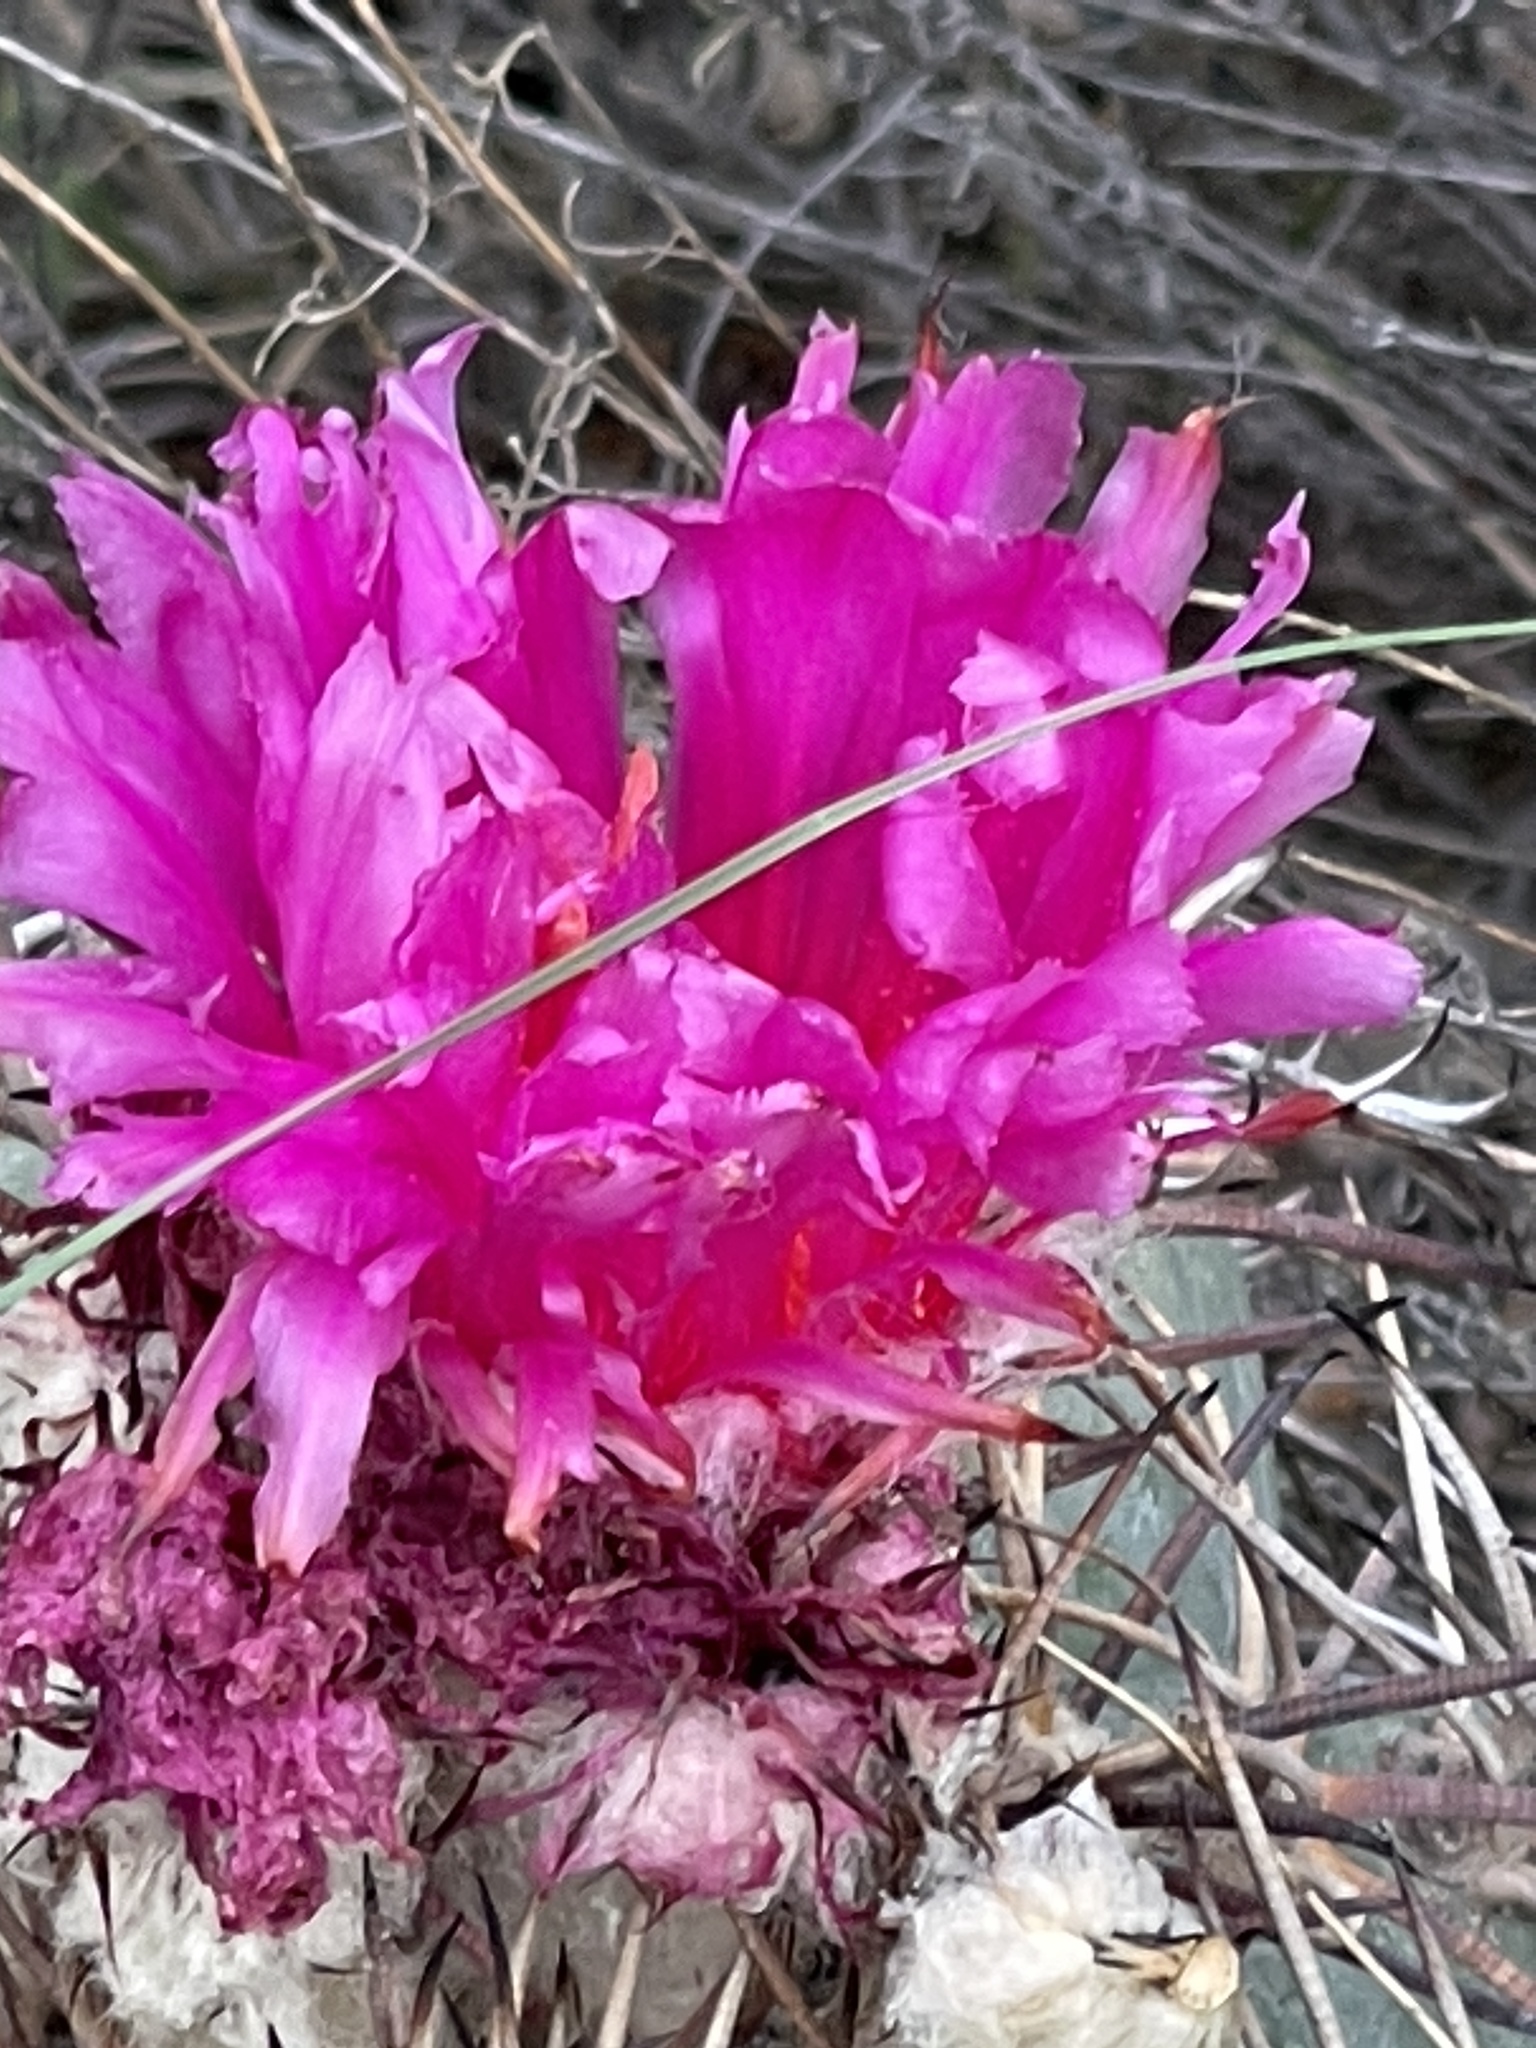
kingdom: Plantae
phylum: Tracheophyta
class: Magnoliopsida
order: Caryophyllales
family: Cactaceae
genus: Echinocactus
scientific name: Echinocactus horizonthalonius
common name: Devilshead
